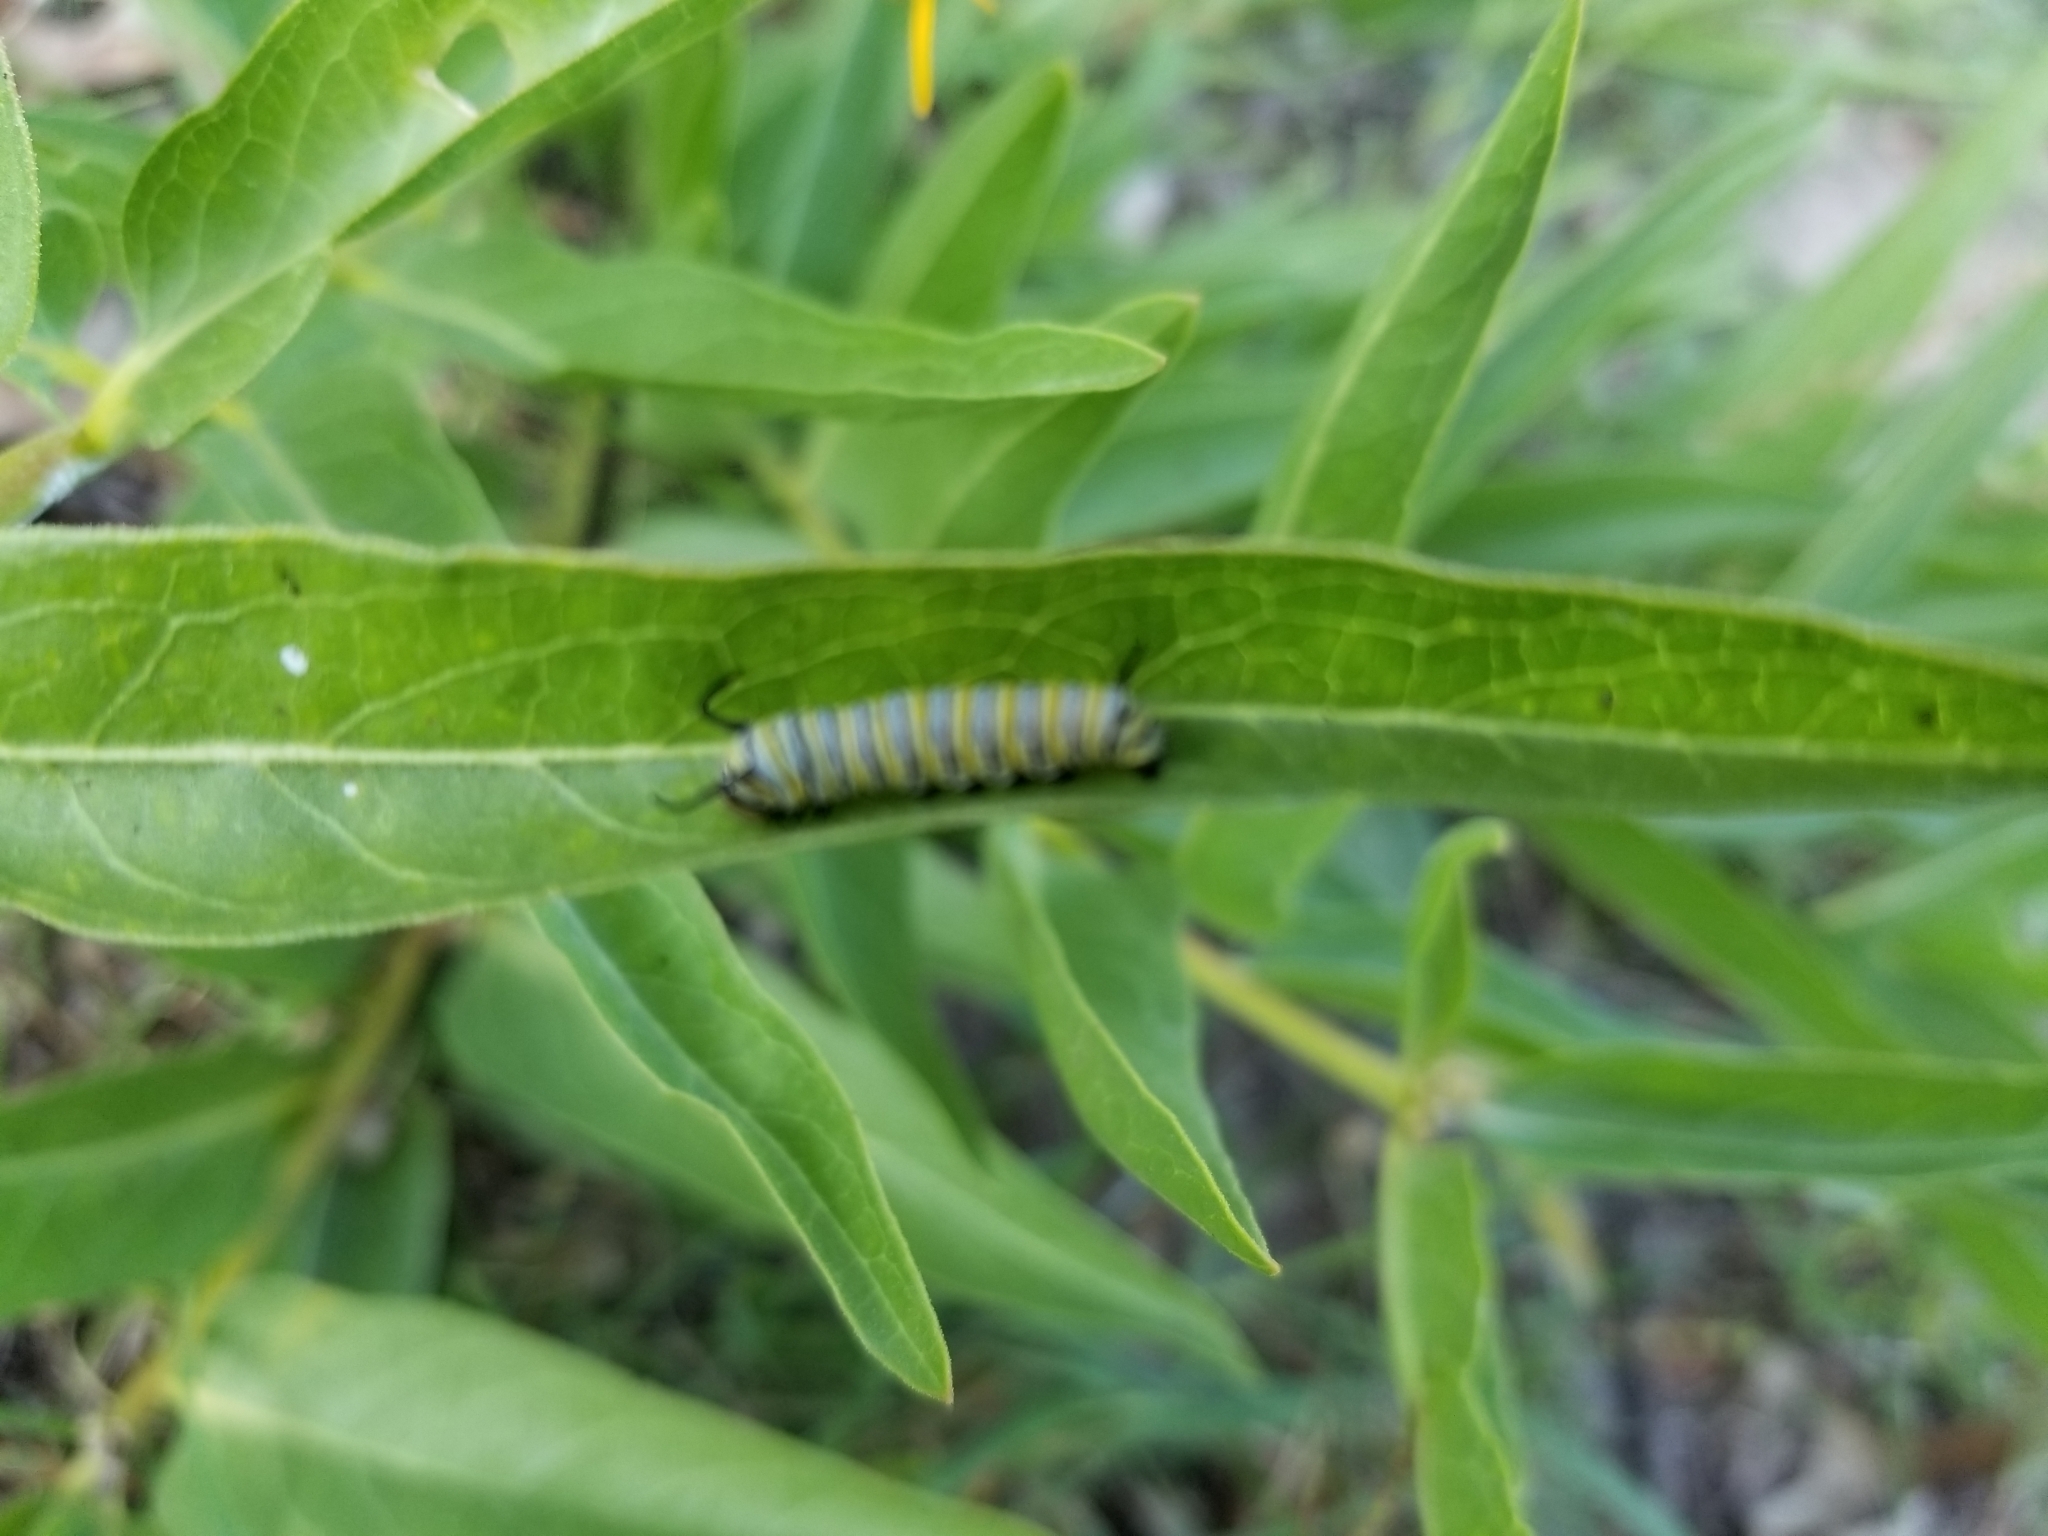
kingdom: Animalia
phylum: Arthropoda
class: Insecta
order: Lepidoptera
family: Nymphalidae
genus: Danaus
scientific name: Danaus plexippus
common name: Monarch
